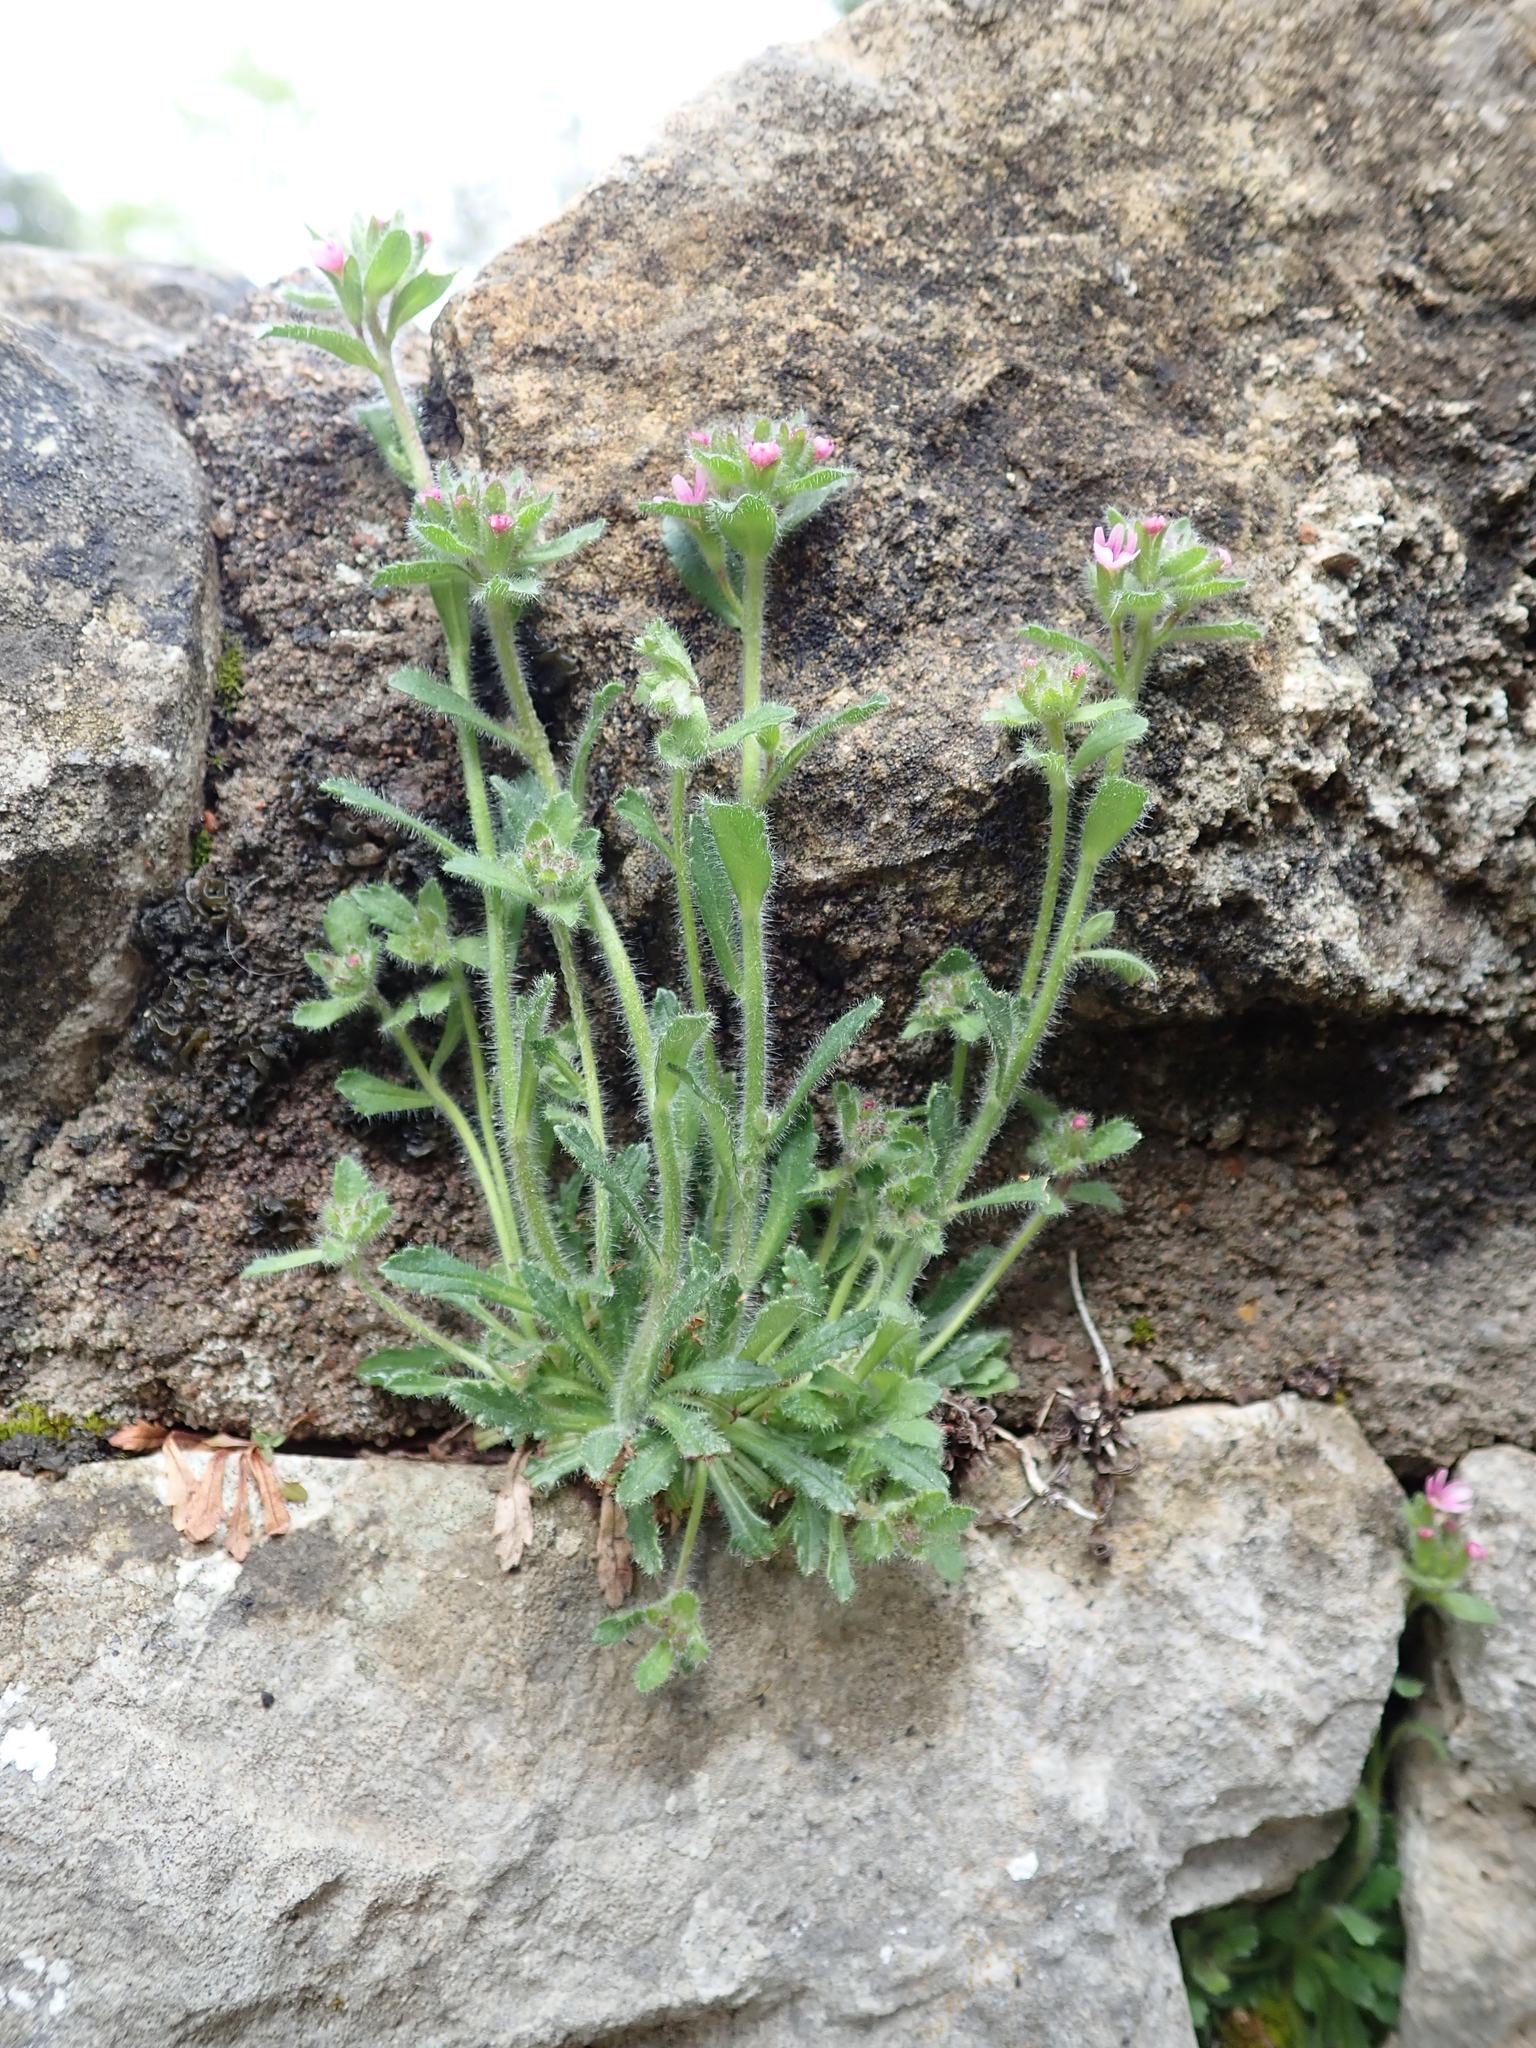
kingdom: Plantae
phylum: Tracheophyta
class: Magnoliopsida
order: Lamiales
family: Plantaginaceae
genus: Erinus
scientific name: Erinus alpinus
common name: Fairy foxglove
